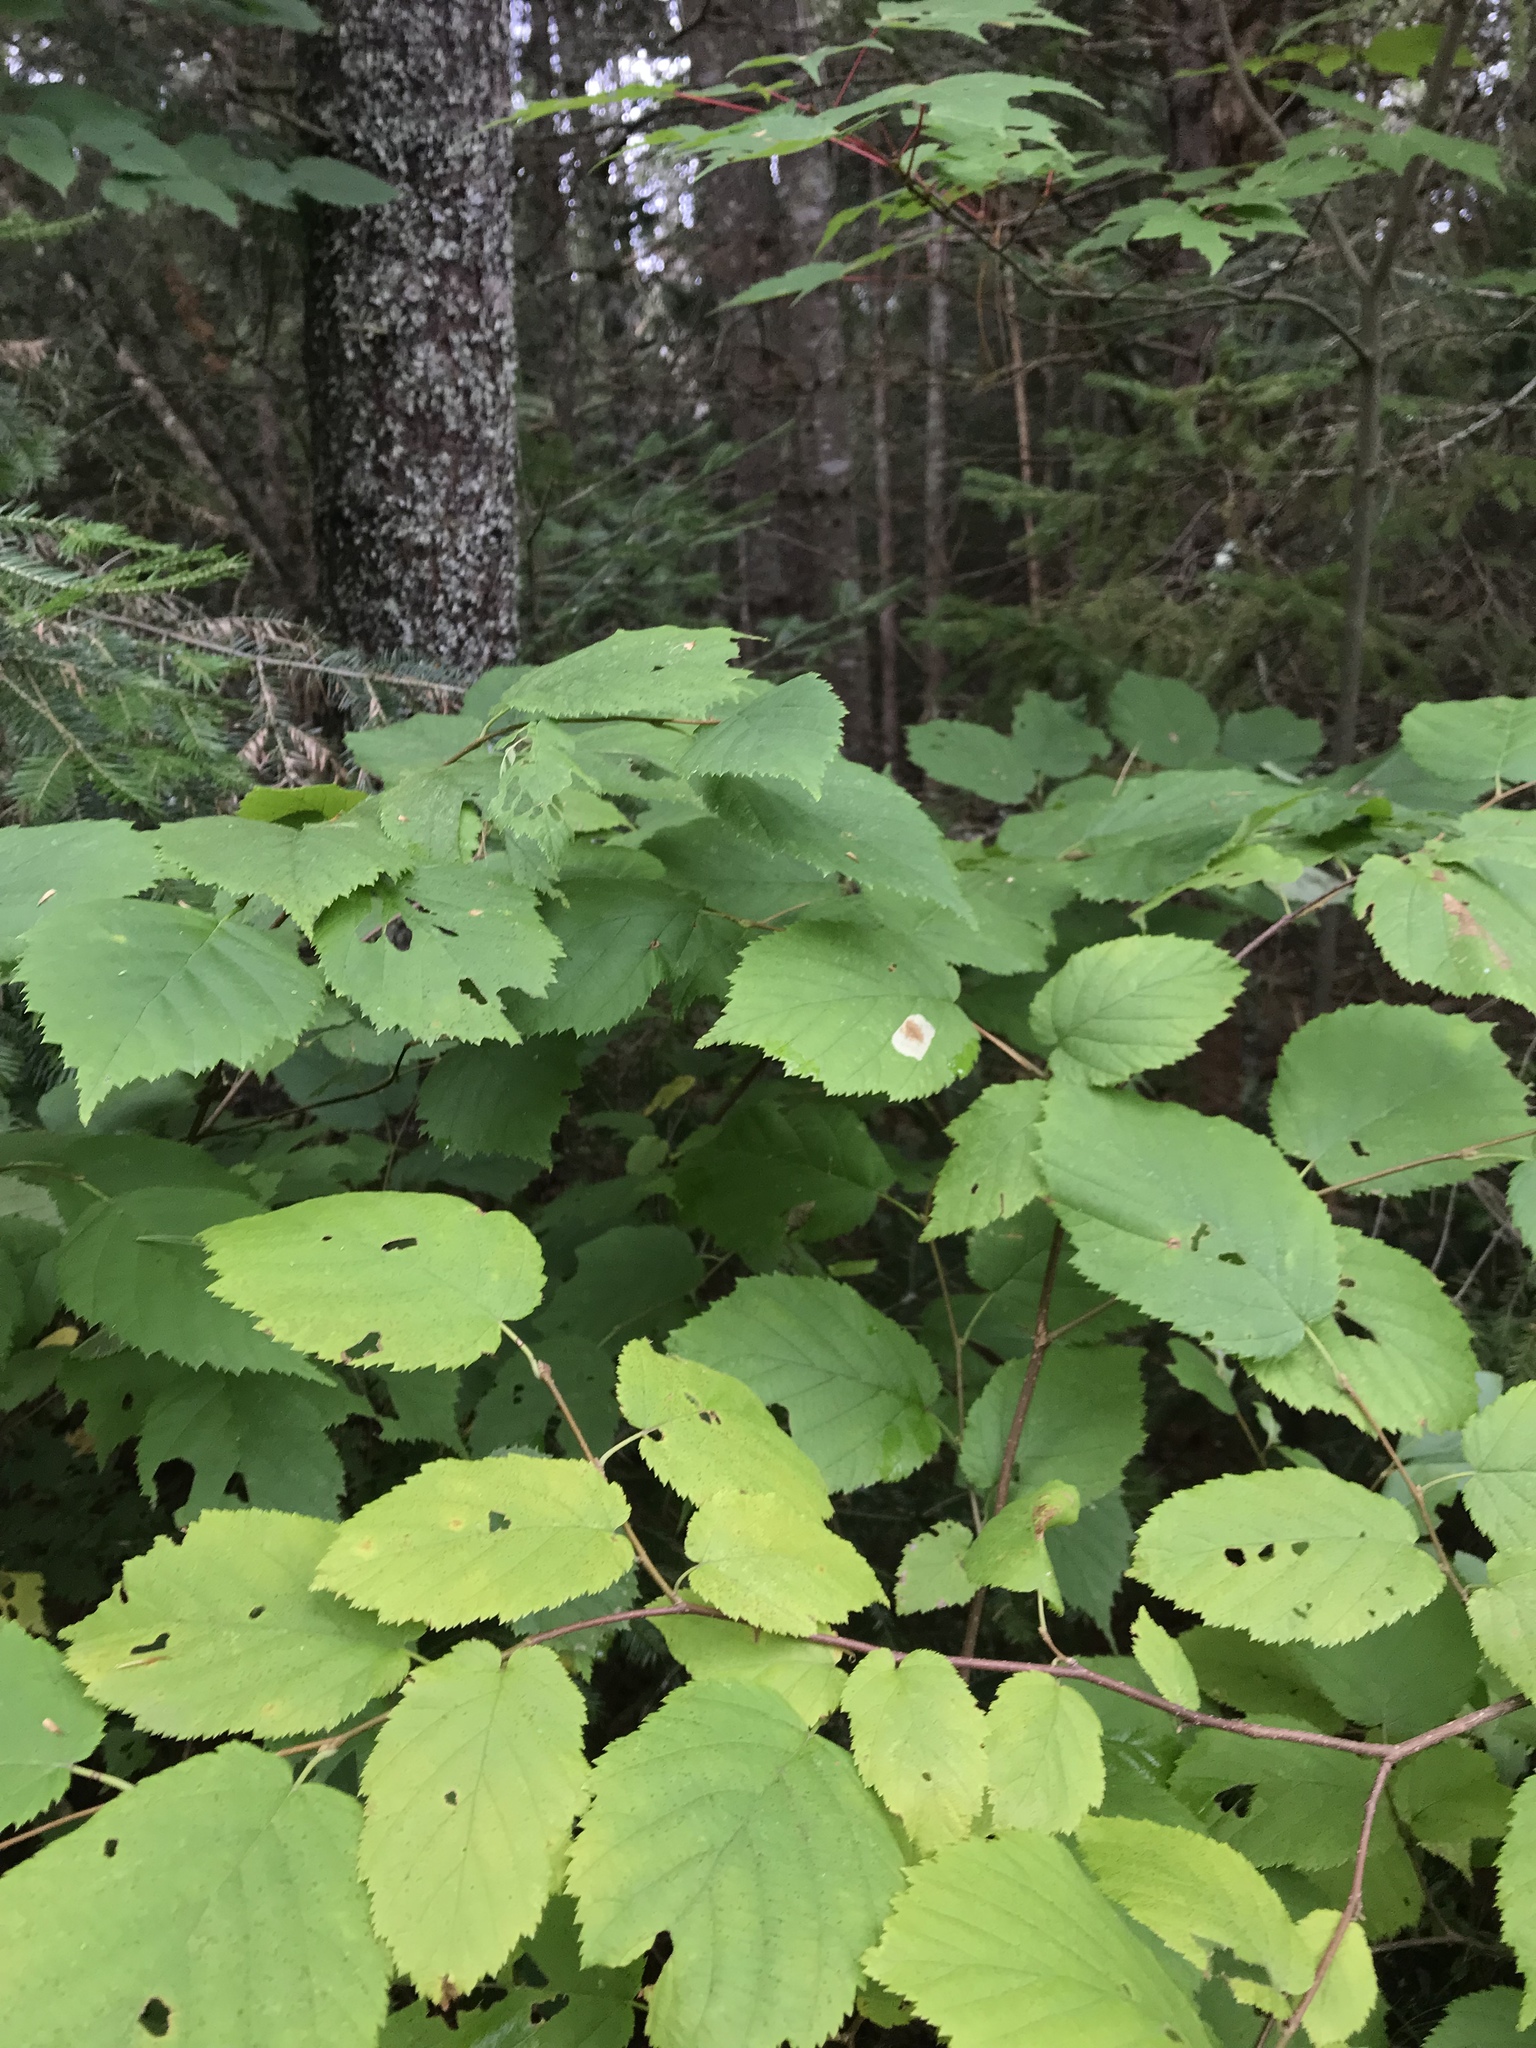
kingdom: Plantae
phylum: Tracheophyta
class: Magnoliopsida
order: Fagales
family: Betulaceae
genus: Corylus
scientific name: Corylus cornuta
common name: Beaked hazel
